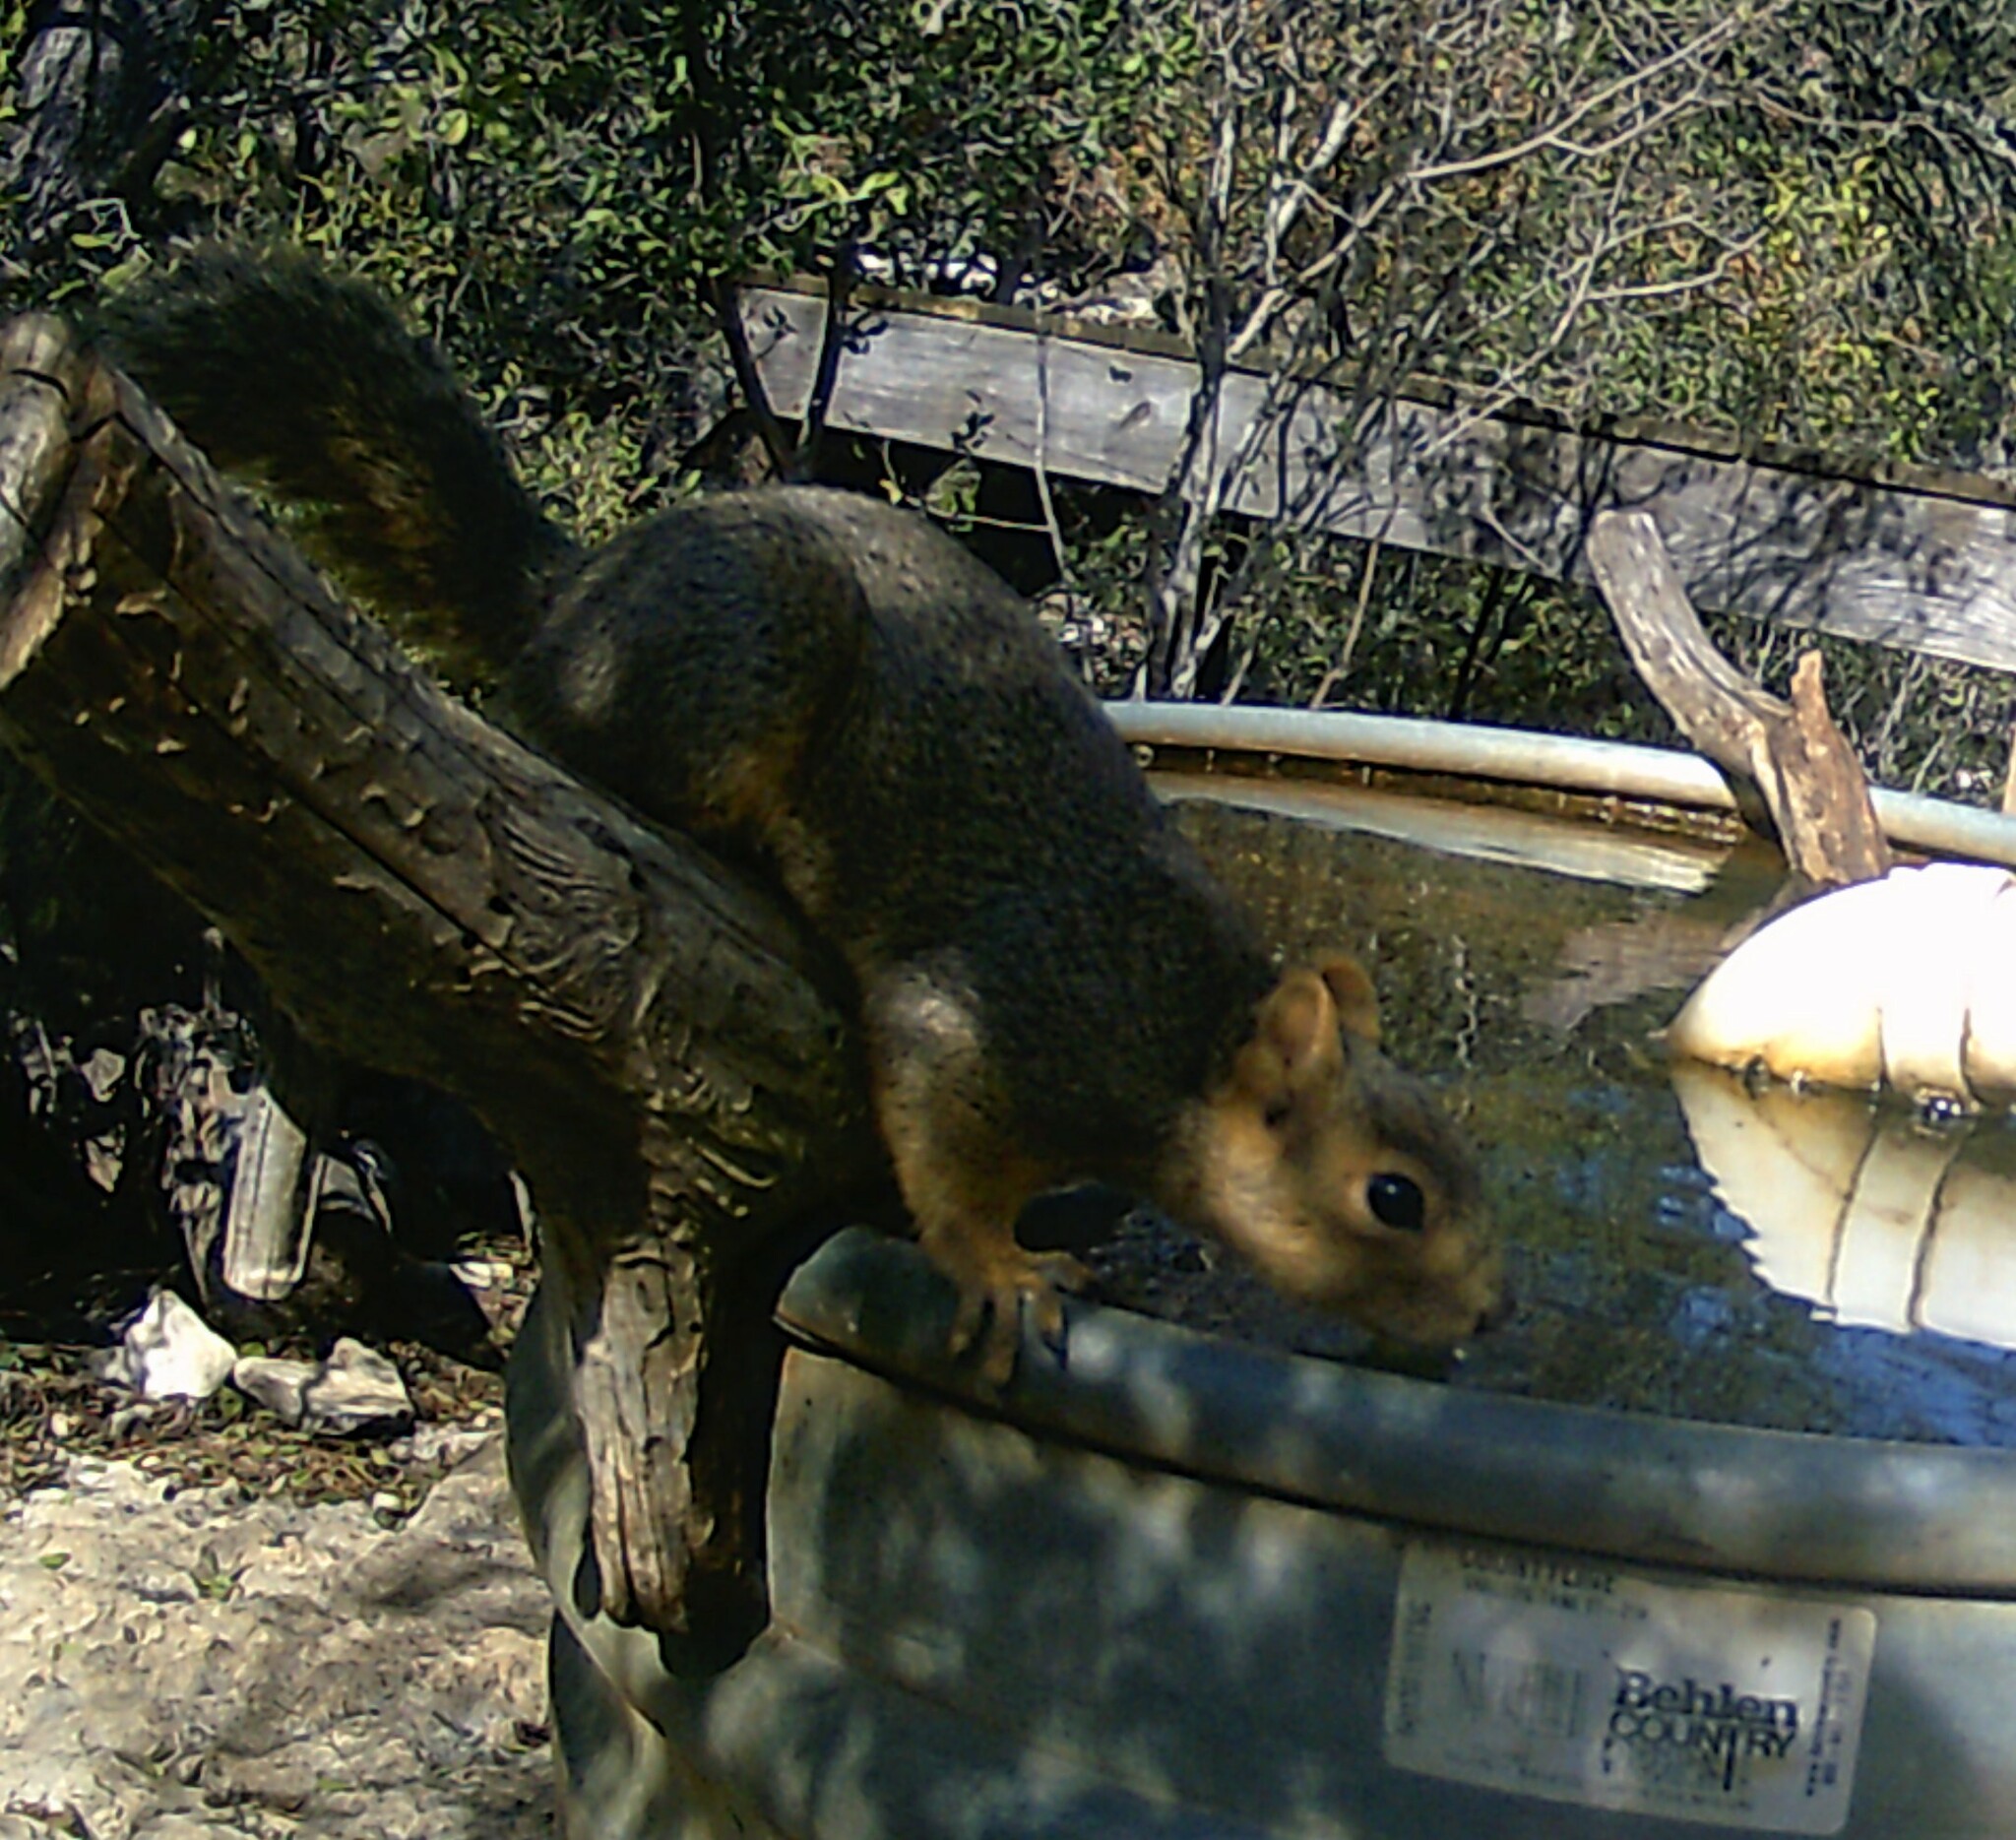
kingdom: Animalia
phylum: Chordata
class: Mammalia
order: Rodentia
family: Sciuridae
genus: Sciurus
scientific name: Sciurus niger
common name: Fox squirrel
